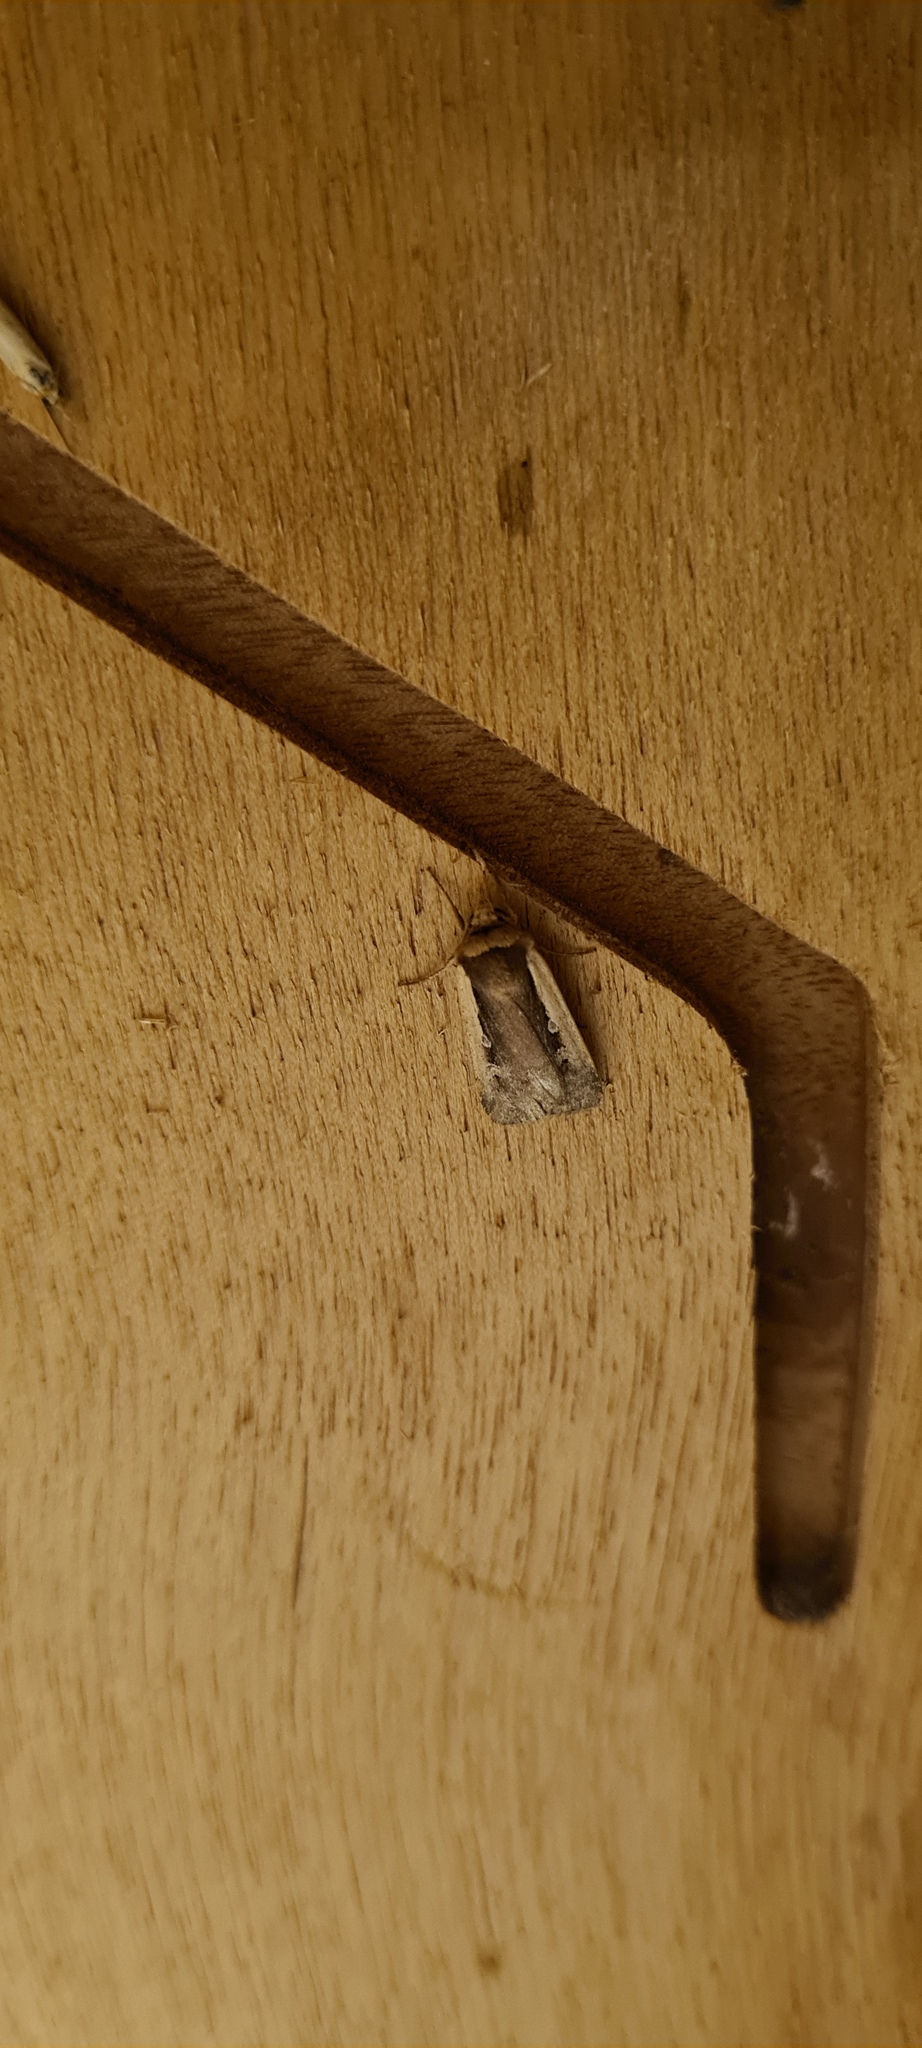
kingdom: Animalia
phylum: Arthropoda
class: Insecta
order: Lepidoptera
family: Noctuidae
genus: Ochropleura
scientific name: Ochropleura plecta
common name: Flame shoulder
